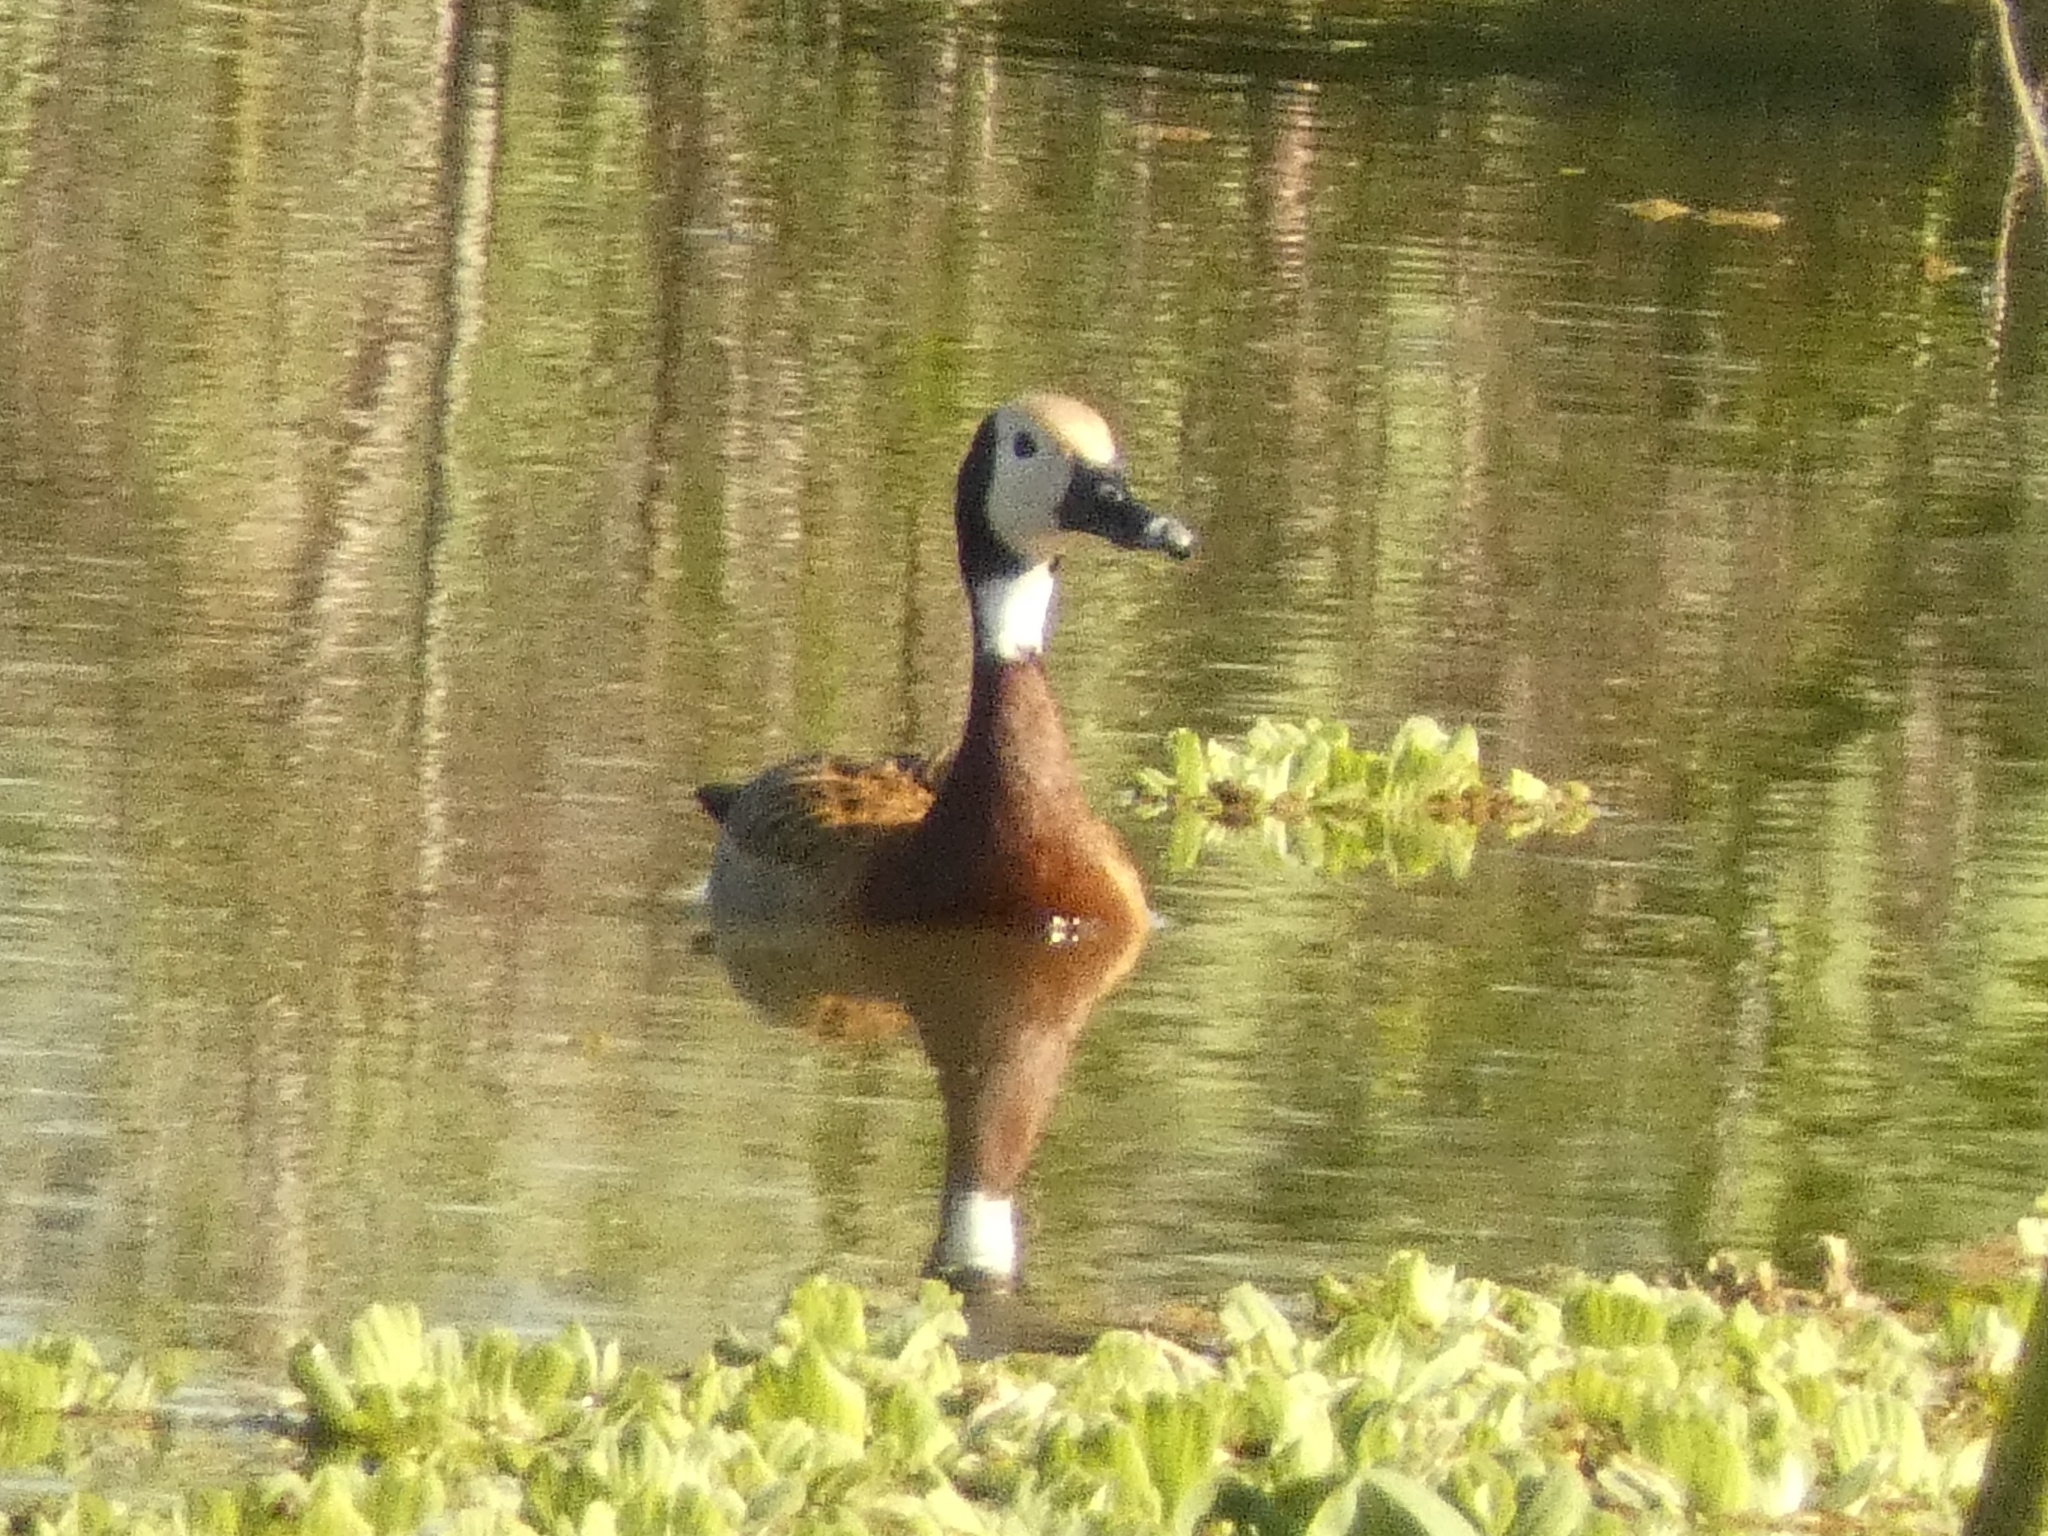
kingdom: Animalia
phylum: Chordata
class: Aves
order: Anseriformes
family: Anatidae
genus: Dendrocygna
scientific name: Dendrocygna viduata
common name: White-faced whistling duck
